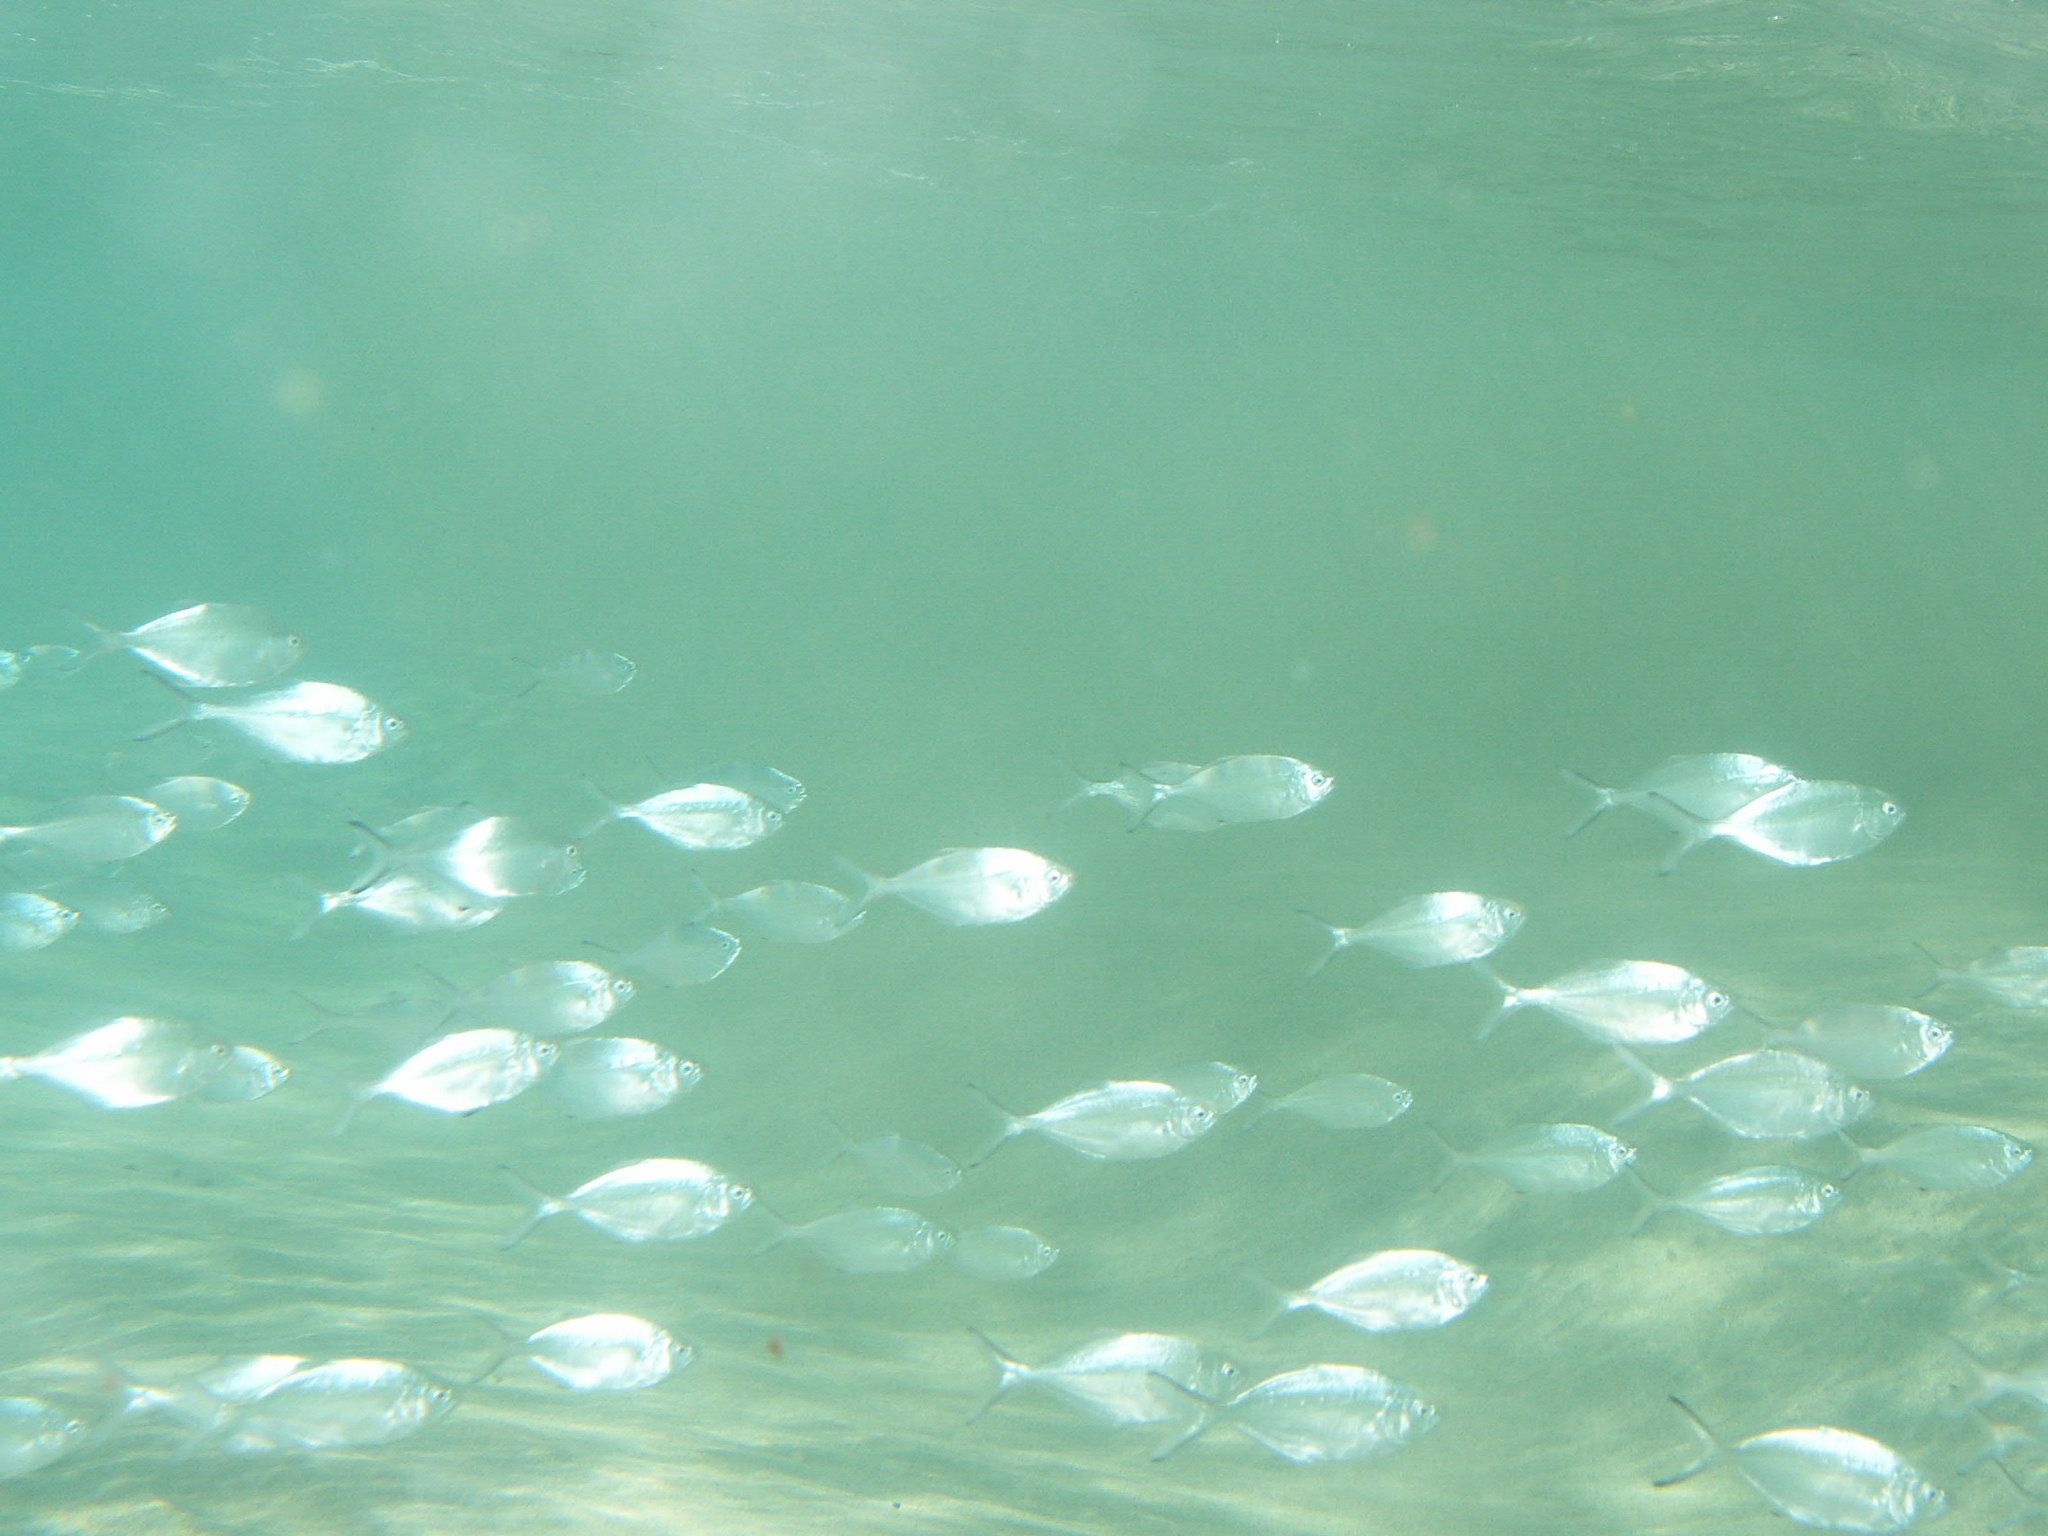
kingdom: Animalia
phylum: Chordata
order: Perciformes
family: Carangidae
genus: Trachinotus
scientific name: Trachinotus ovatus
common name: Pompano
